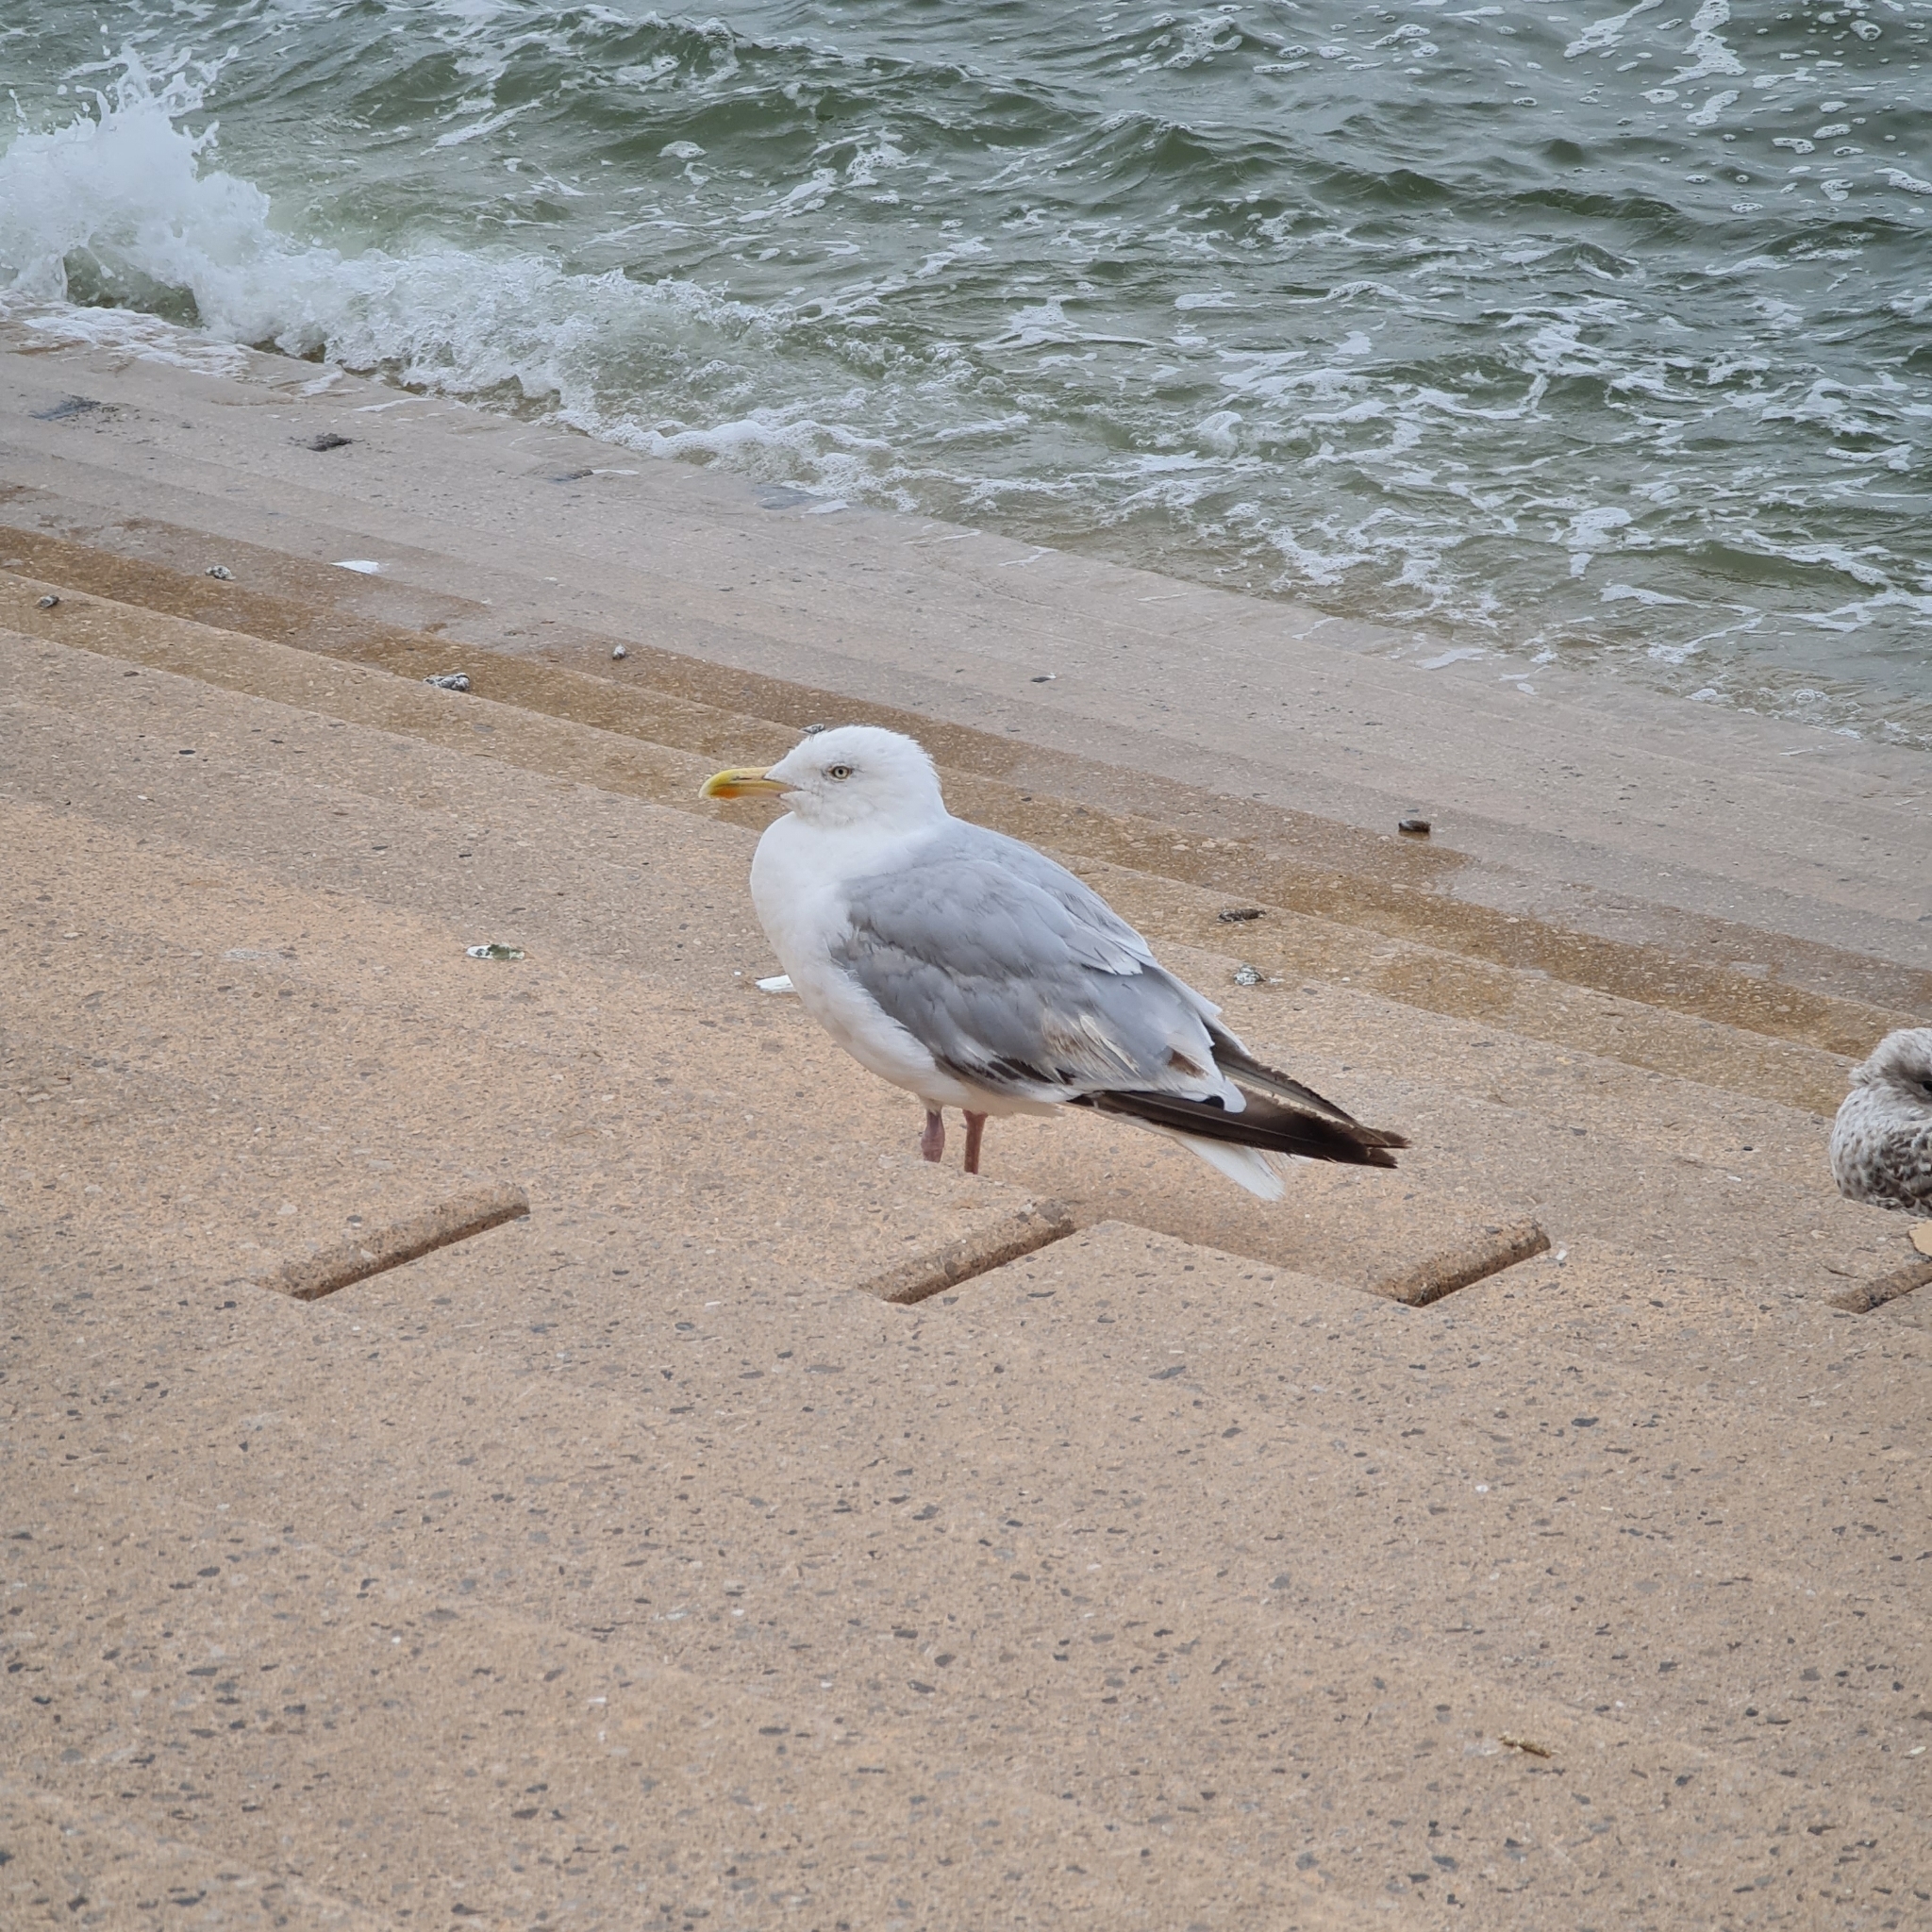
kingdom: Animalia
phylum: Chordata
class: Aves
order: Charadriiformes
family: Laridae
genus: Larus
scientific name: Larus argentatus
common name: Herring gull
